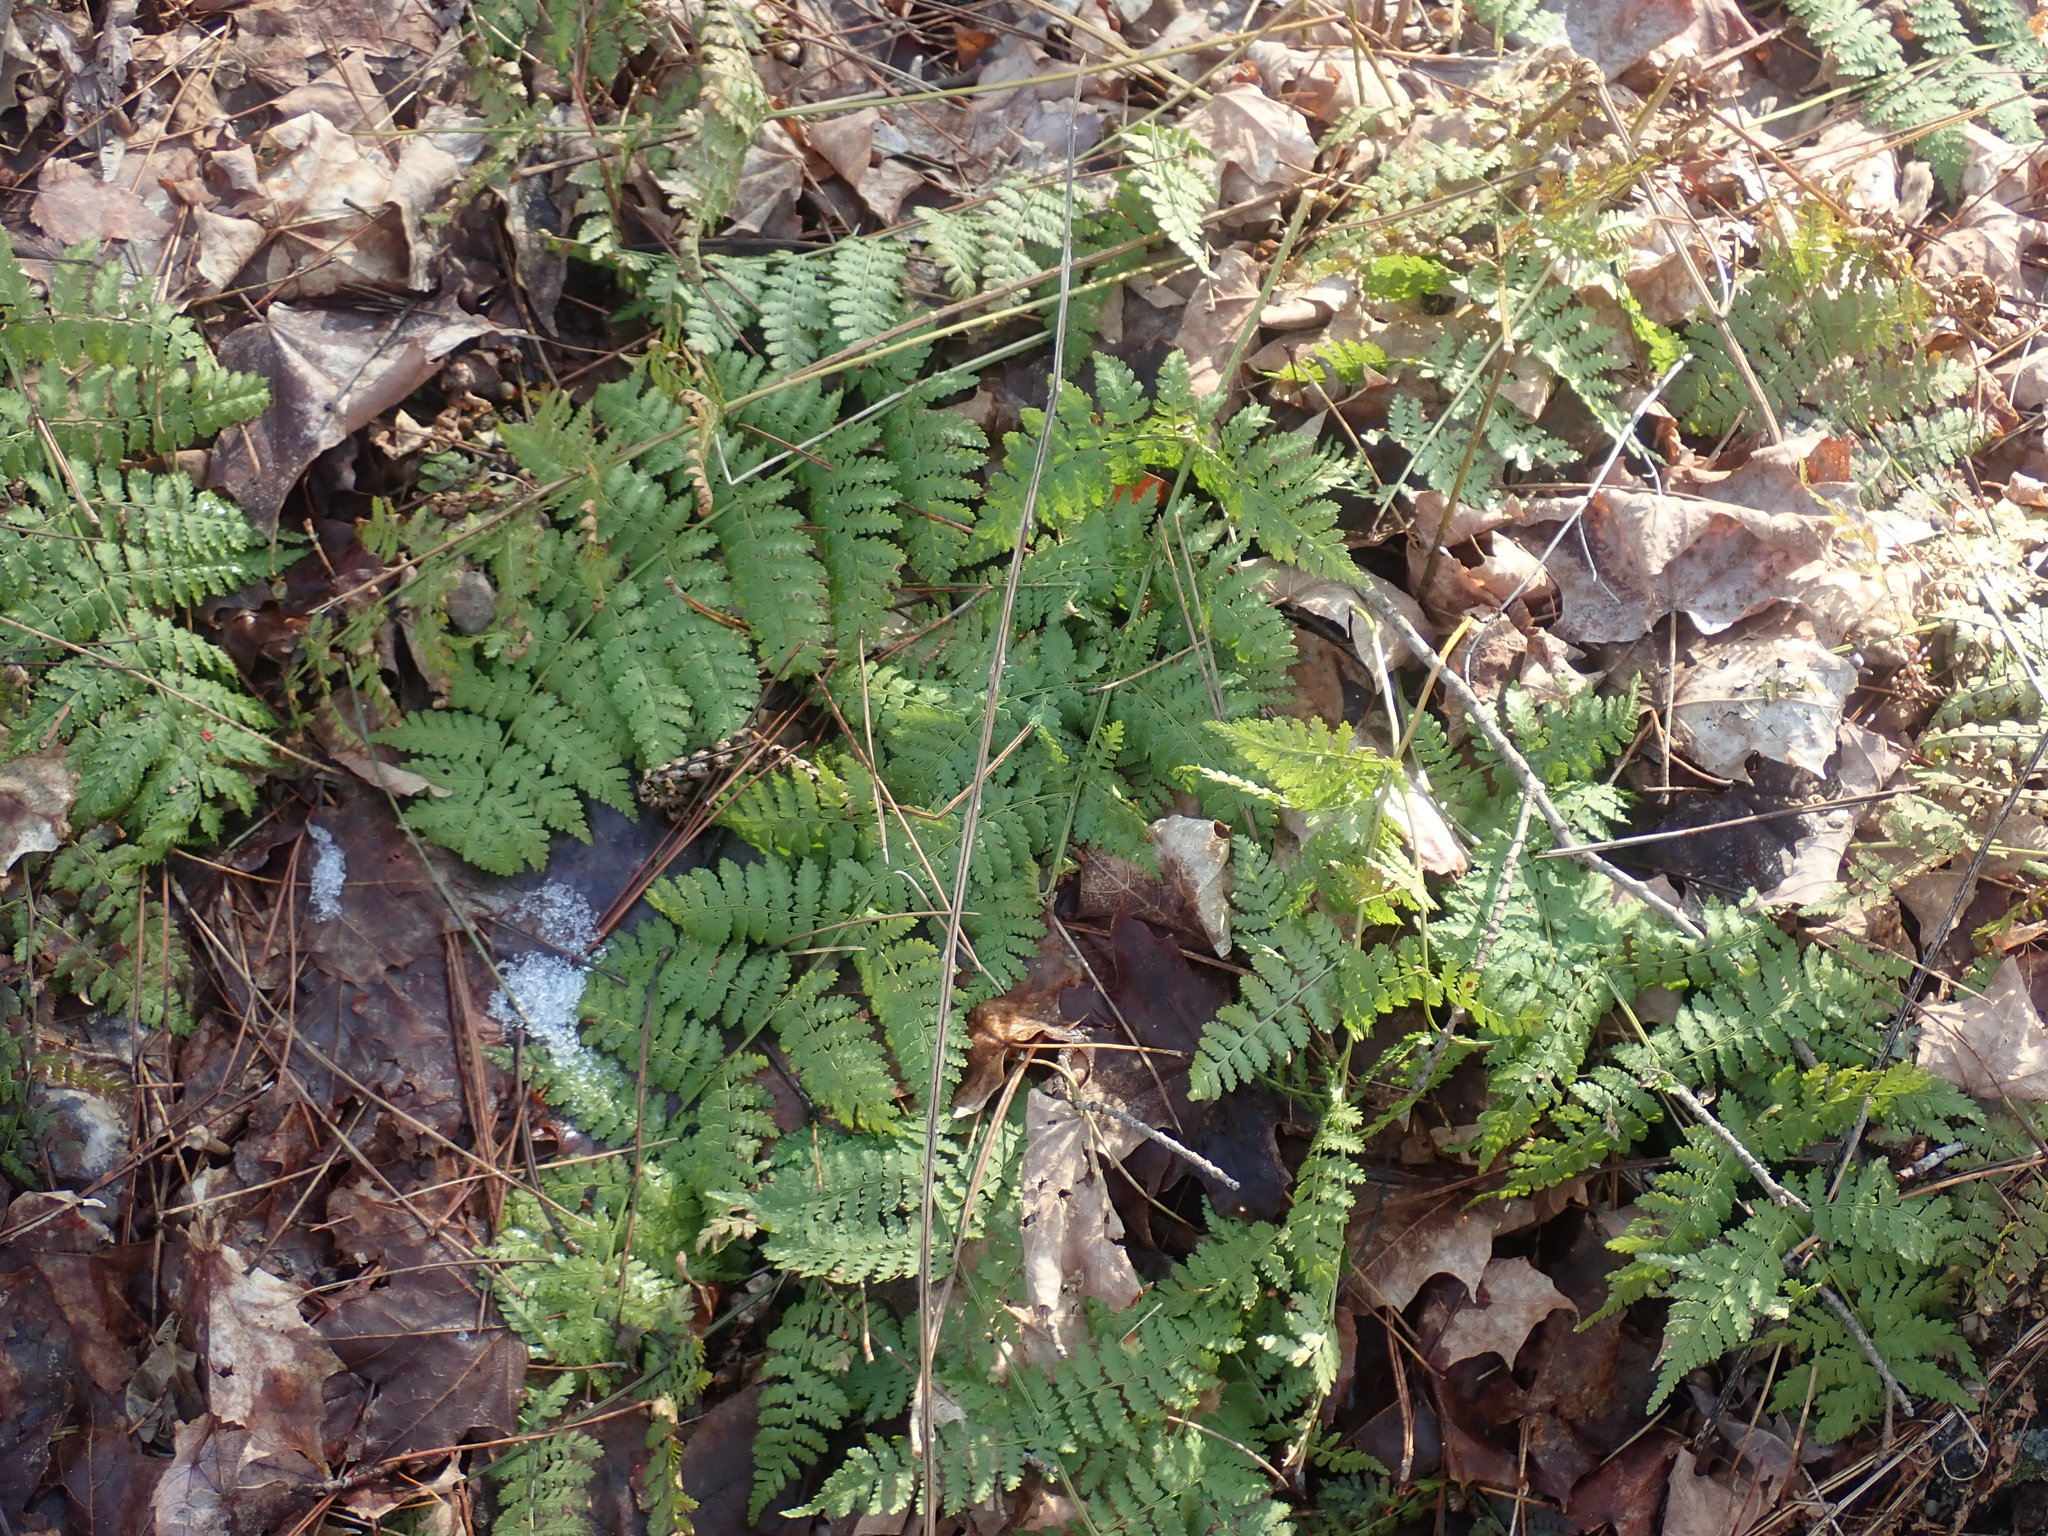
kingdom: Plantae
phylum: Tracheophyta
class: Polypodiopsida
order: Polypodiales
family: Dryopteridaceae
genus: Dryopteris
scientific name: Dryopteris intermedia
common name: Evergreen wood fern
